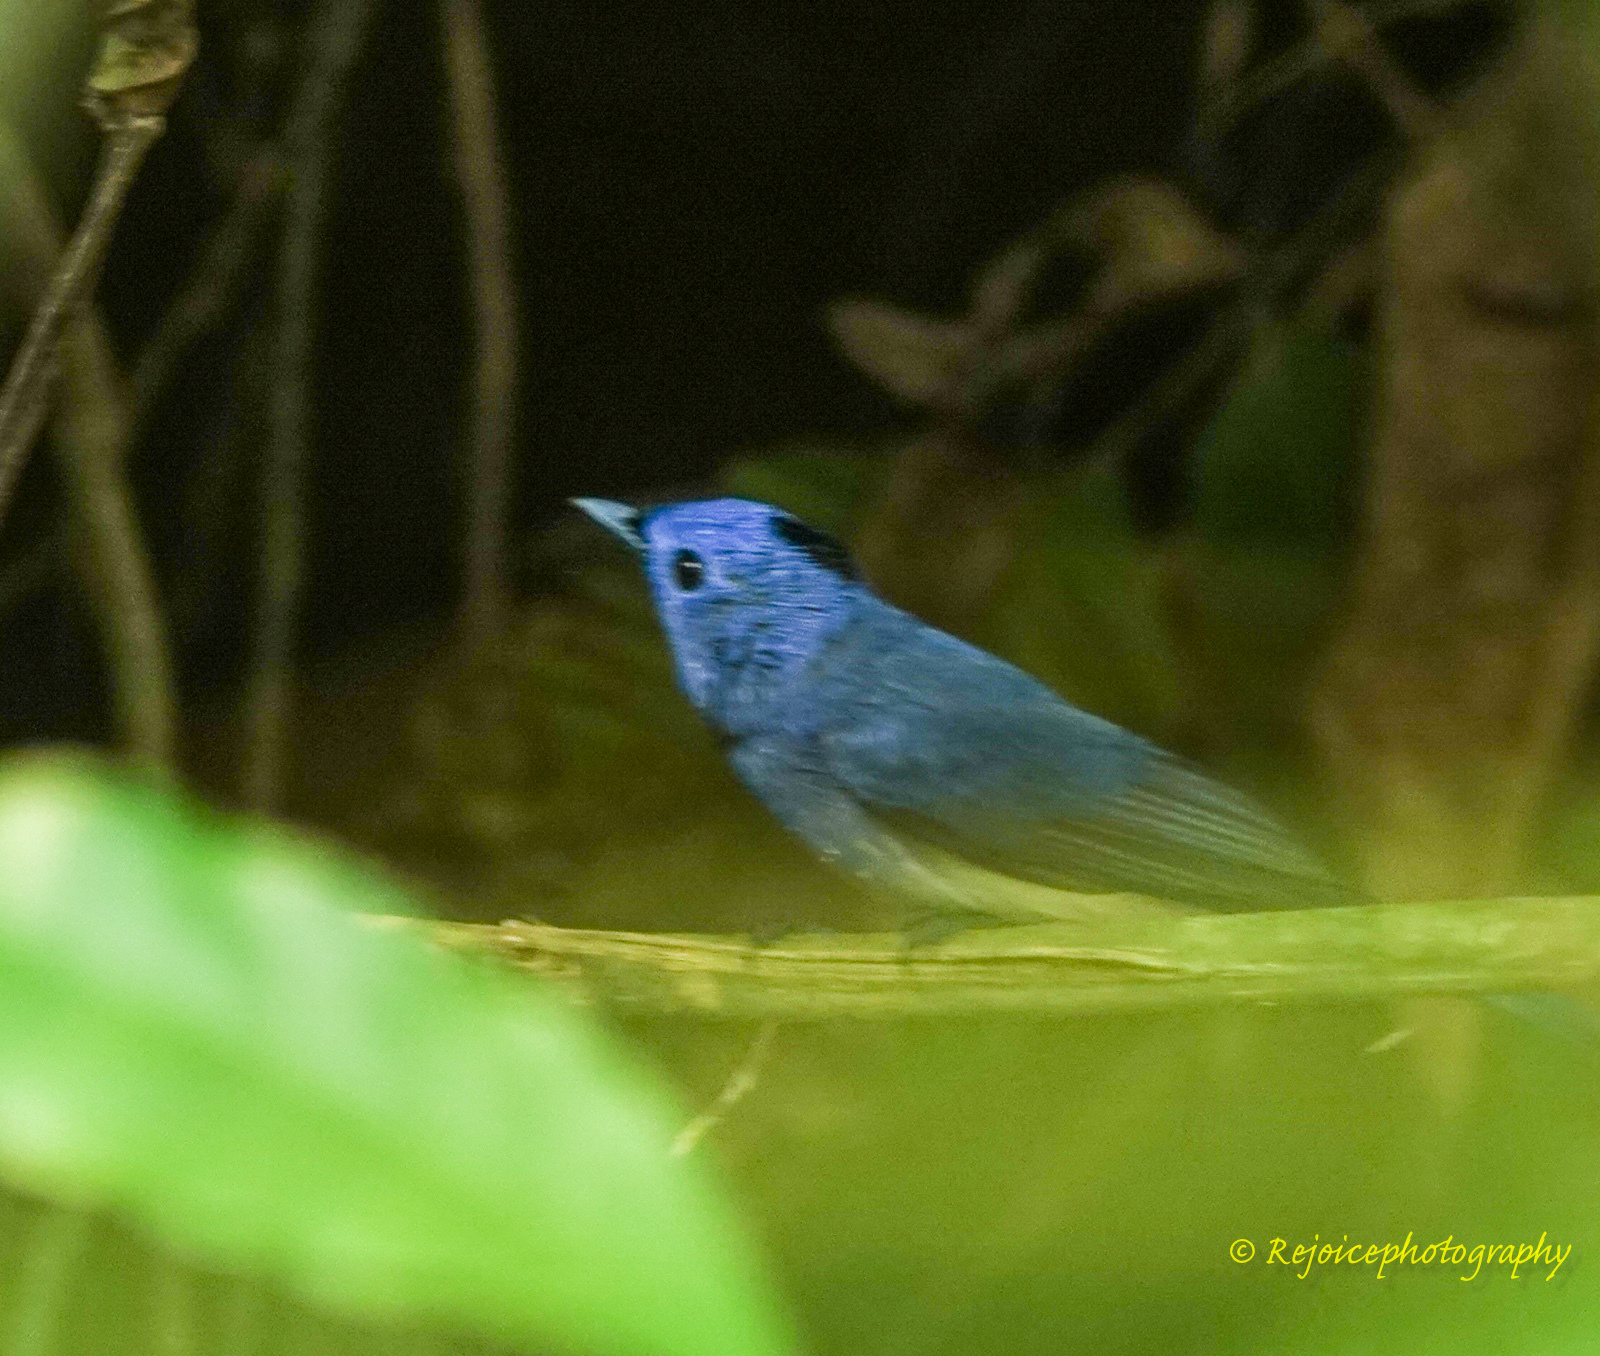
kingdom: Animalia
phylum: Chordata
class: Aves
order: Passeriformes
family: Monarchidae
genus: Hypothymis
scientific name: Hypothymis azurea
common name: Black-naped monarch
